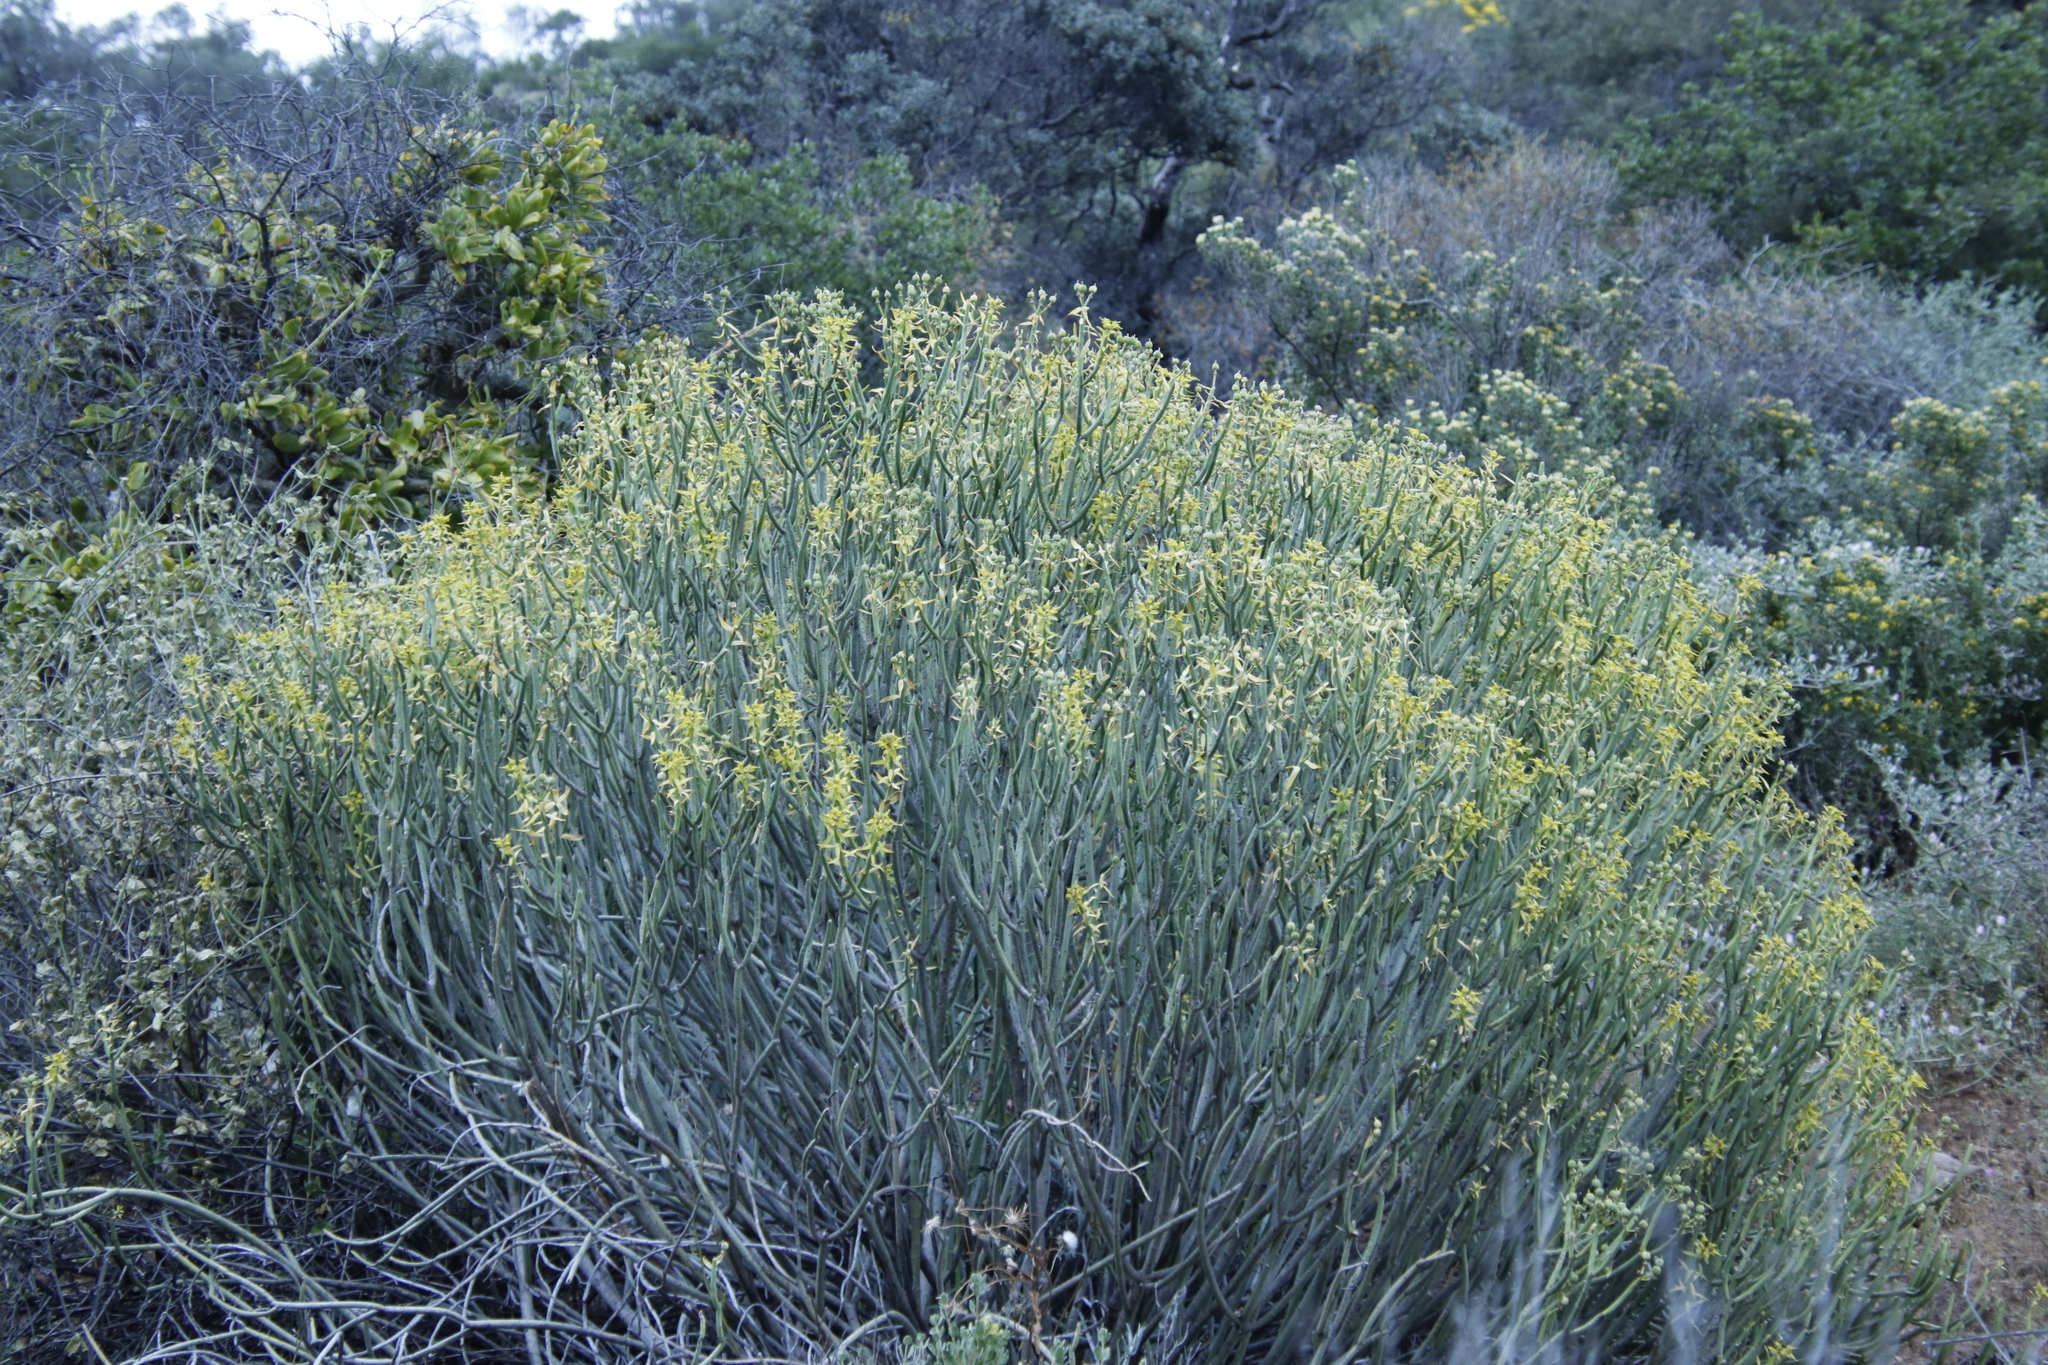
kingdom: Plantae
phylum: Tracheophyta
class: Magnoliopsida
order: Malpighiales
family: Euphorbiaceae
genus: Euphorbia
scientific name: Euphorbia mauritanica
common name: Jackal's-food
